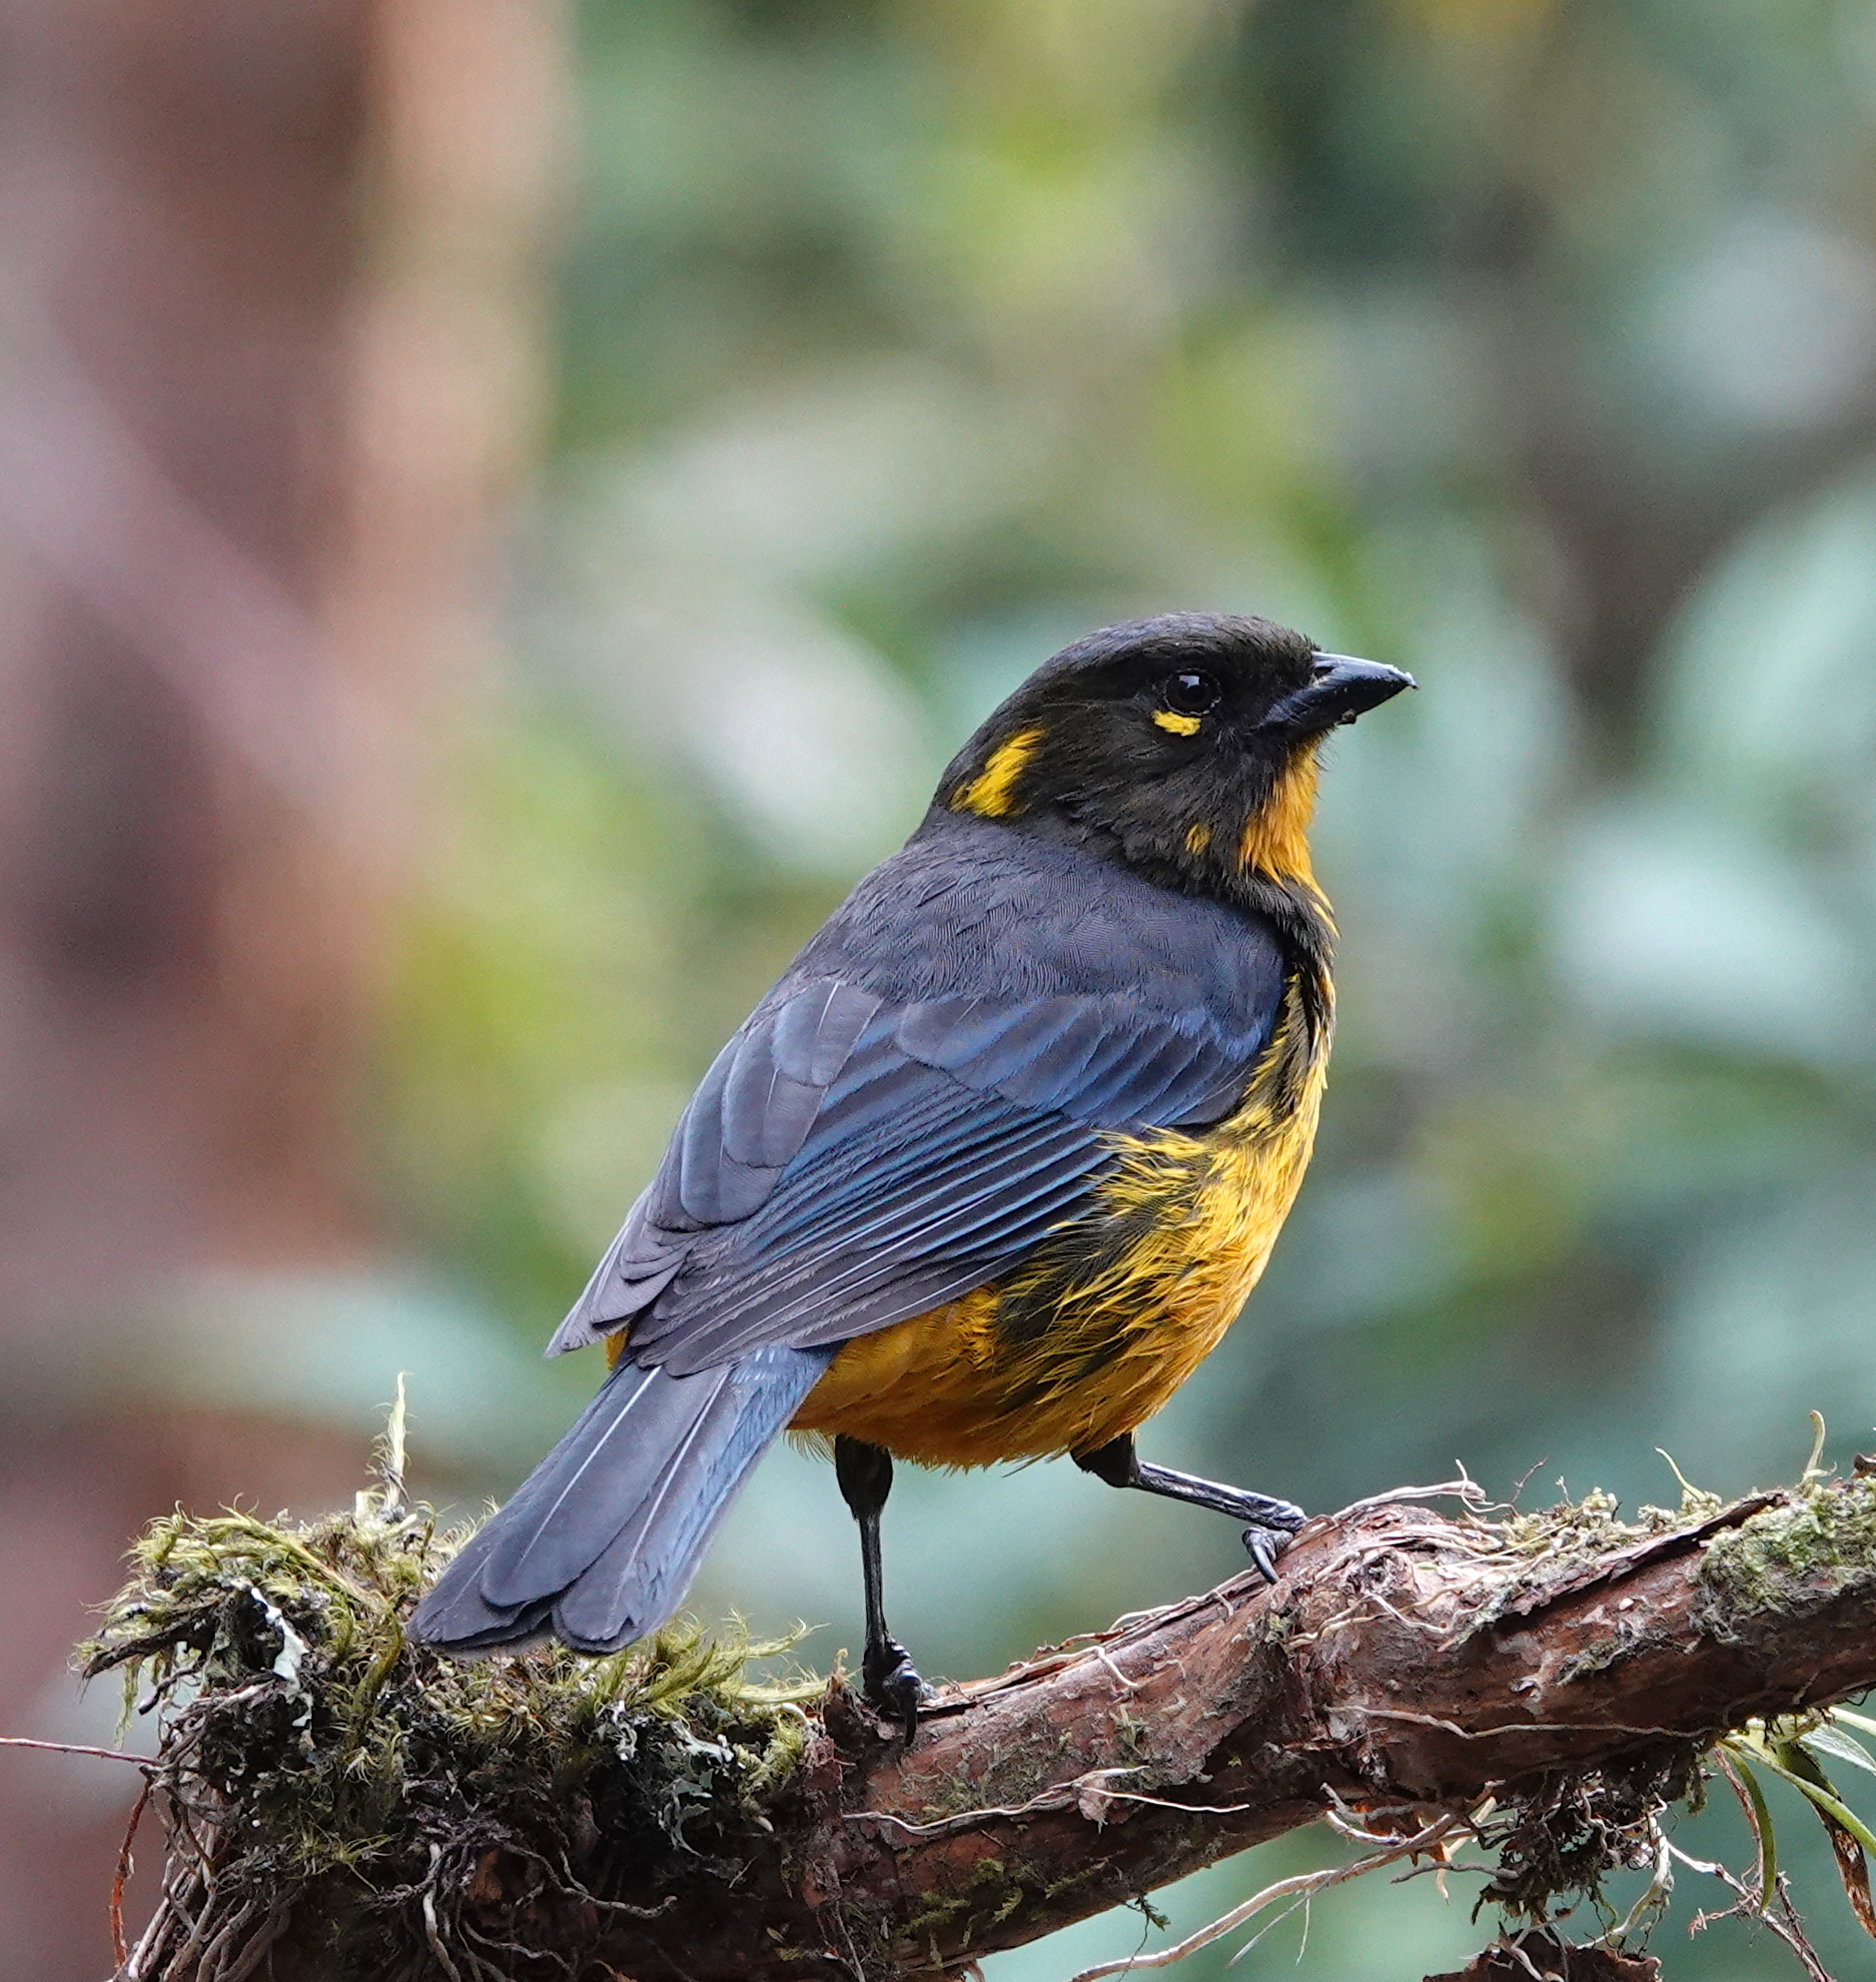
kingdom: Animalia
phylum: Chordata
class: Aves
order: Passeriformes
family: Thraupidae
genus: Anisognathus
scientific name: Anisognathus lacrymosus
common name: Lacrimose mountain-tanager
